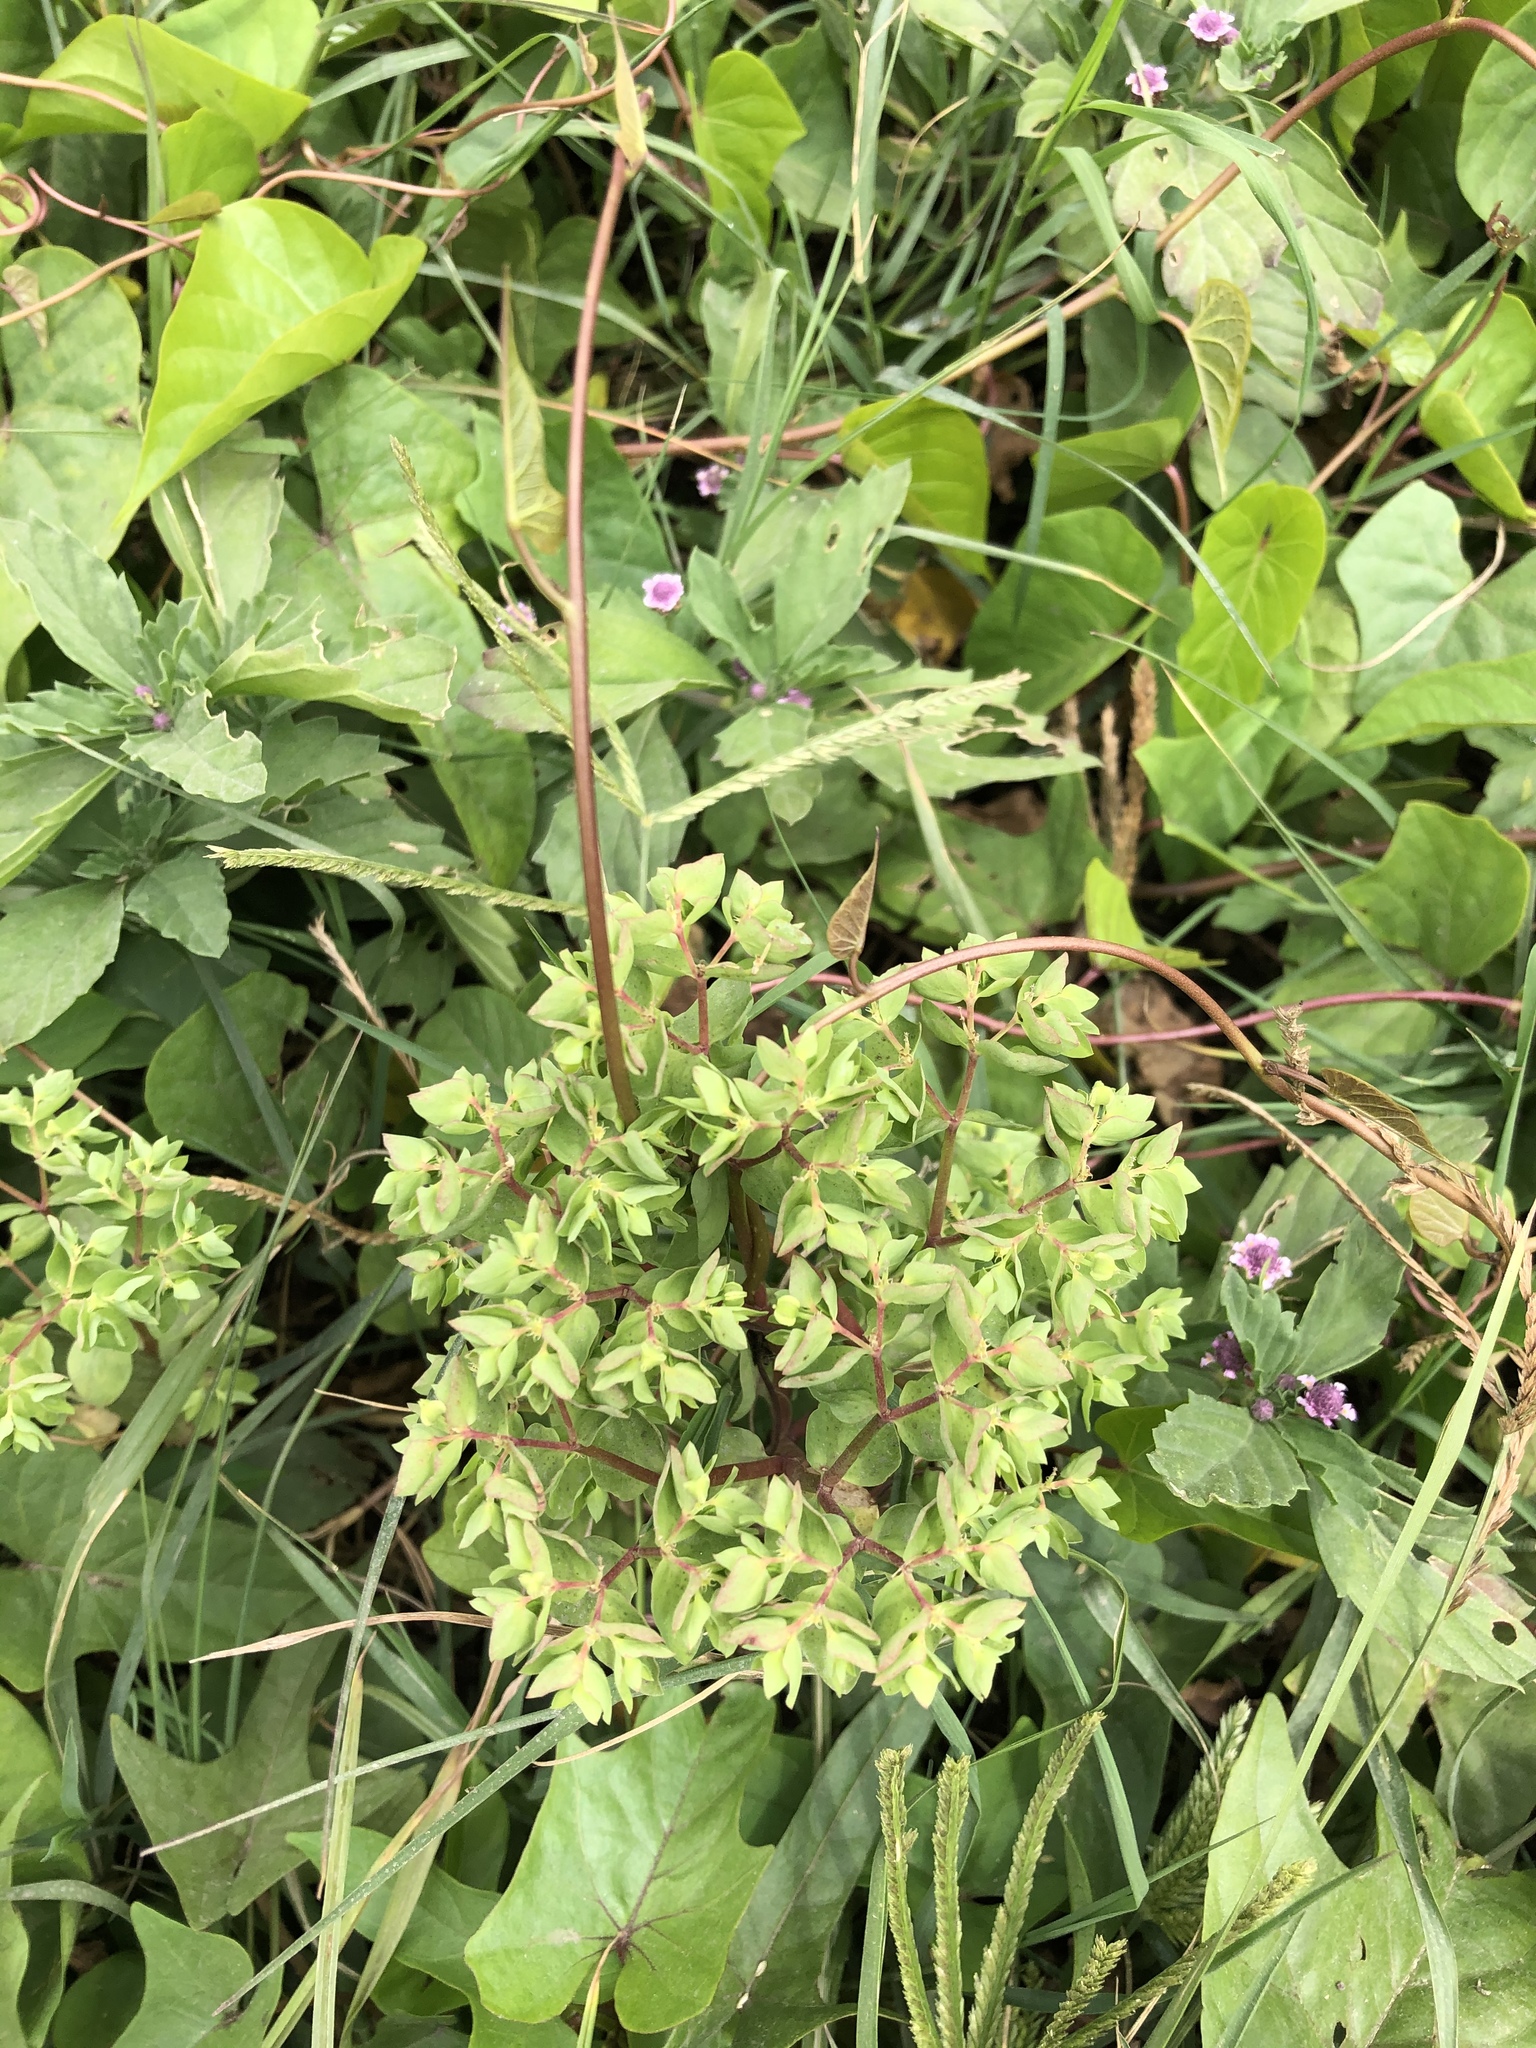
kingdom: Plantae
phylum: Tracheophyta
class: Magnoliopsida
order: Malpighiales
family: Euphorbiaceae
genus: Euphorbia
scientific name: Euphorbia peplus
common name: Petty spurge
